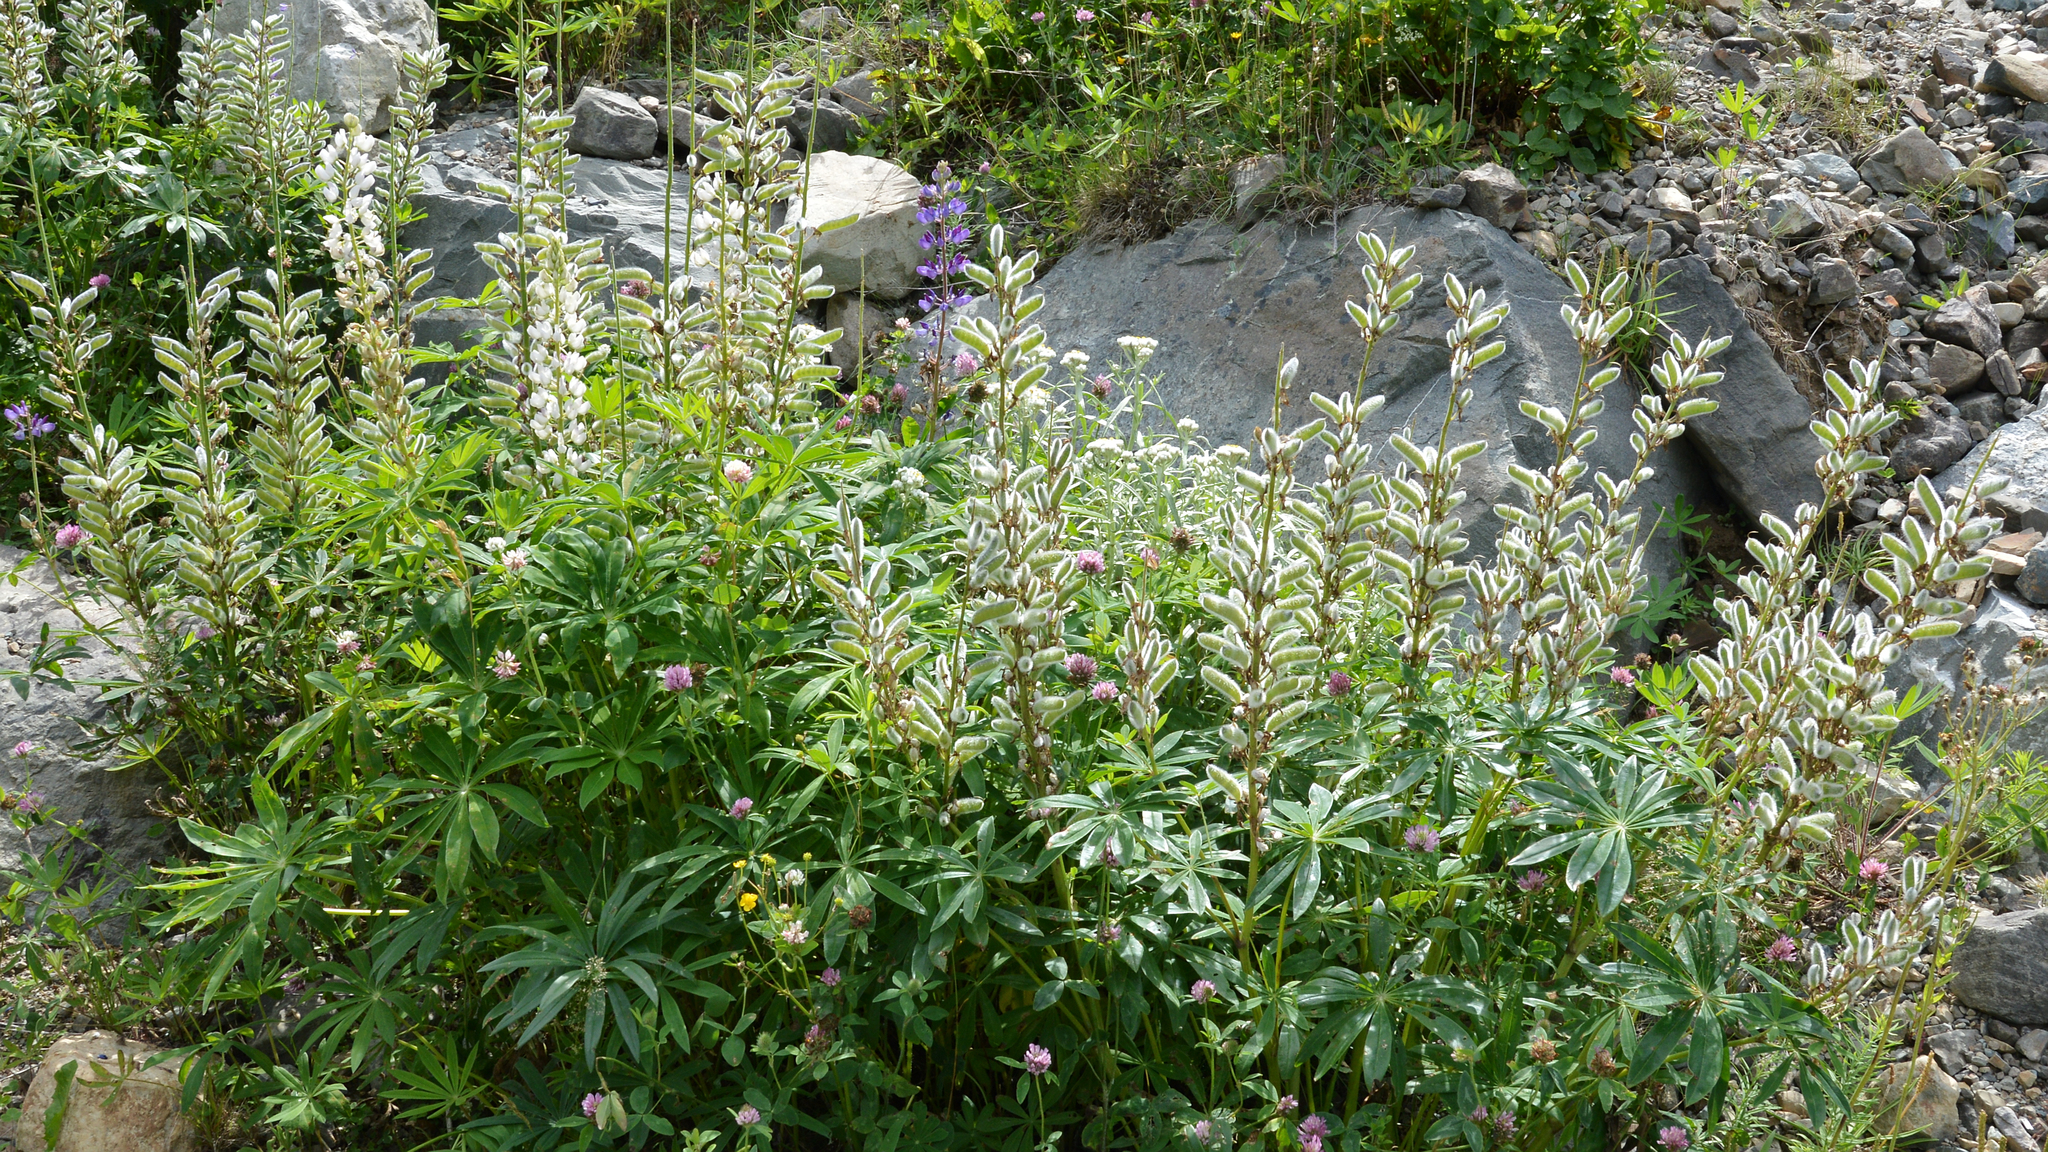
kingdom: Plantae
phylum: Tracheophyta
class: Magnoliopsida
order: Fabales
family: Fabaceae
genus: Lupinus
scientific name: Lupinus polyphyllus
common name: Garden lupin
